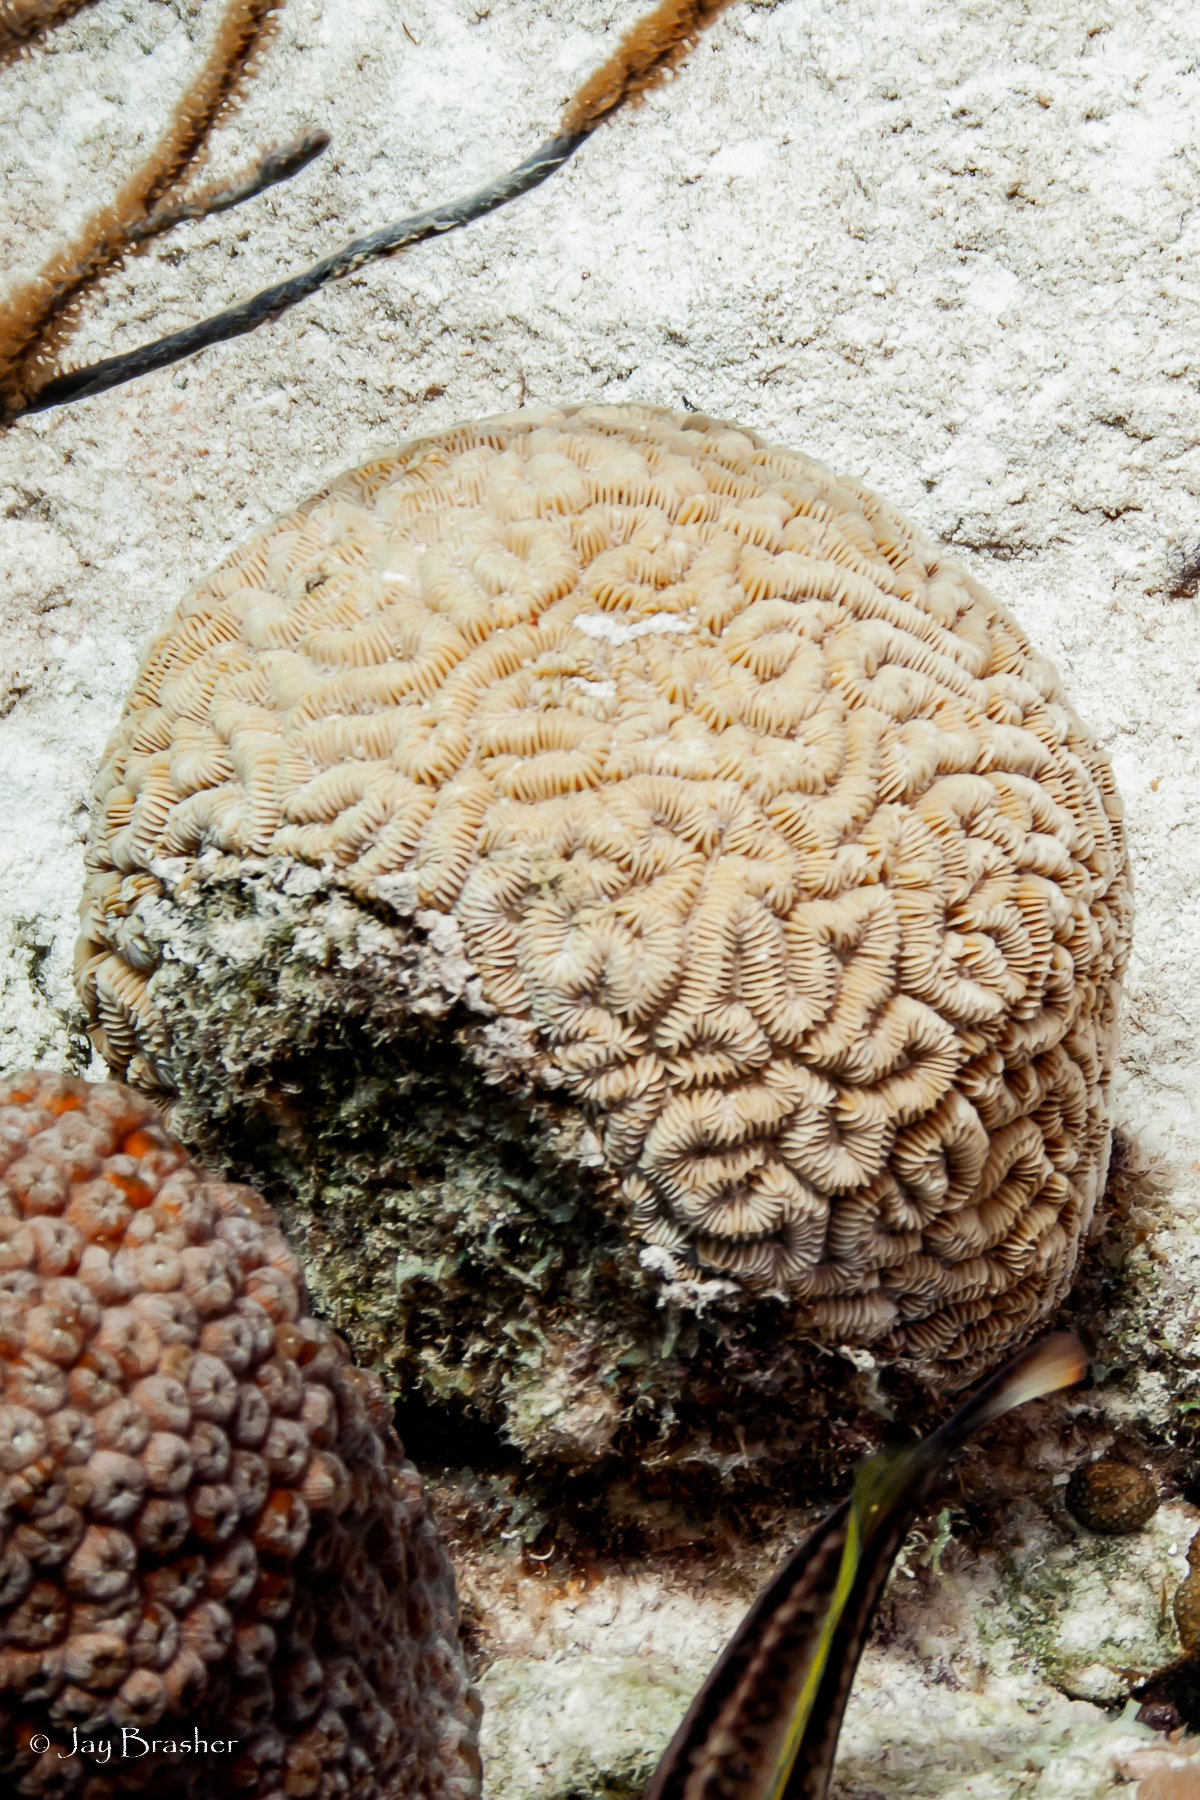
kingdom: Animalia
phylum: Cnidaria
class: Anthozoa
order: Scleractinia
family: Meandrinidae
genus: Meandrina
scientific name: Meandrina meandrites
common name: Maze coral
